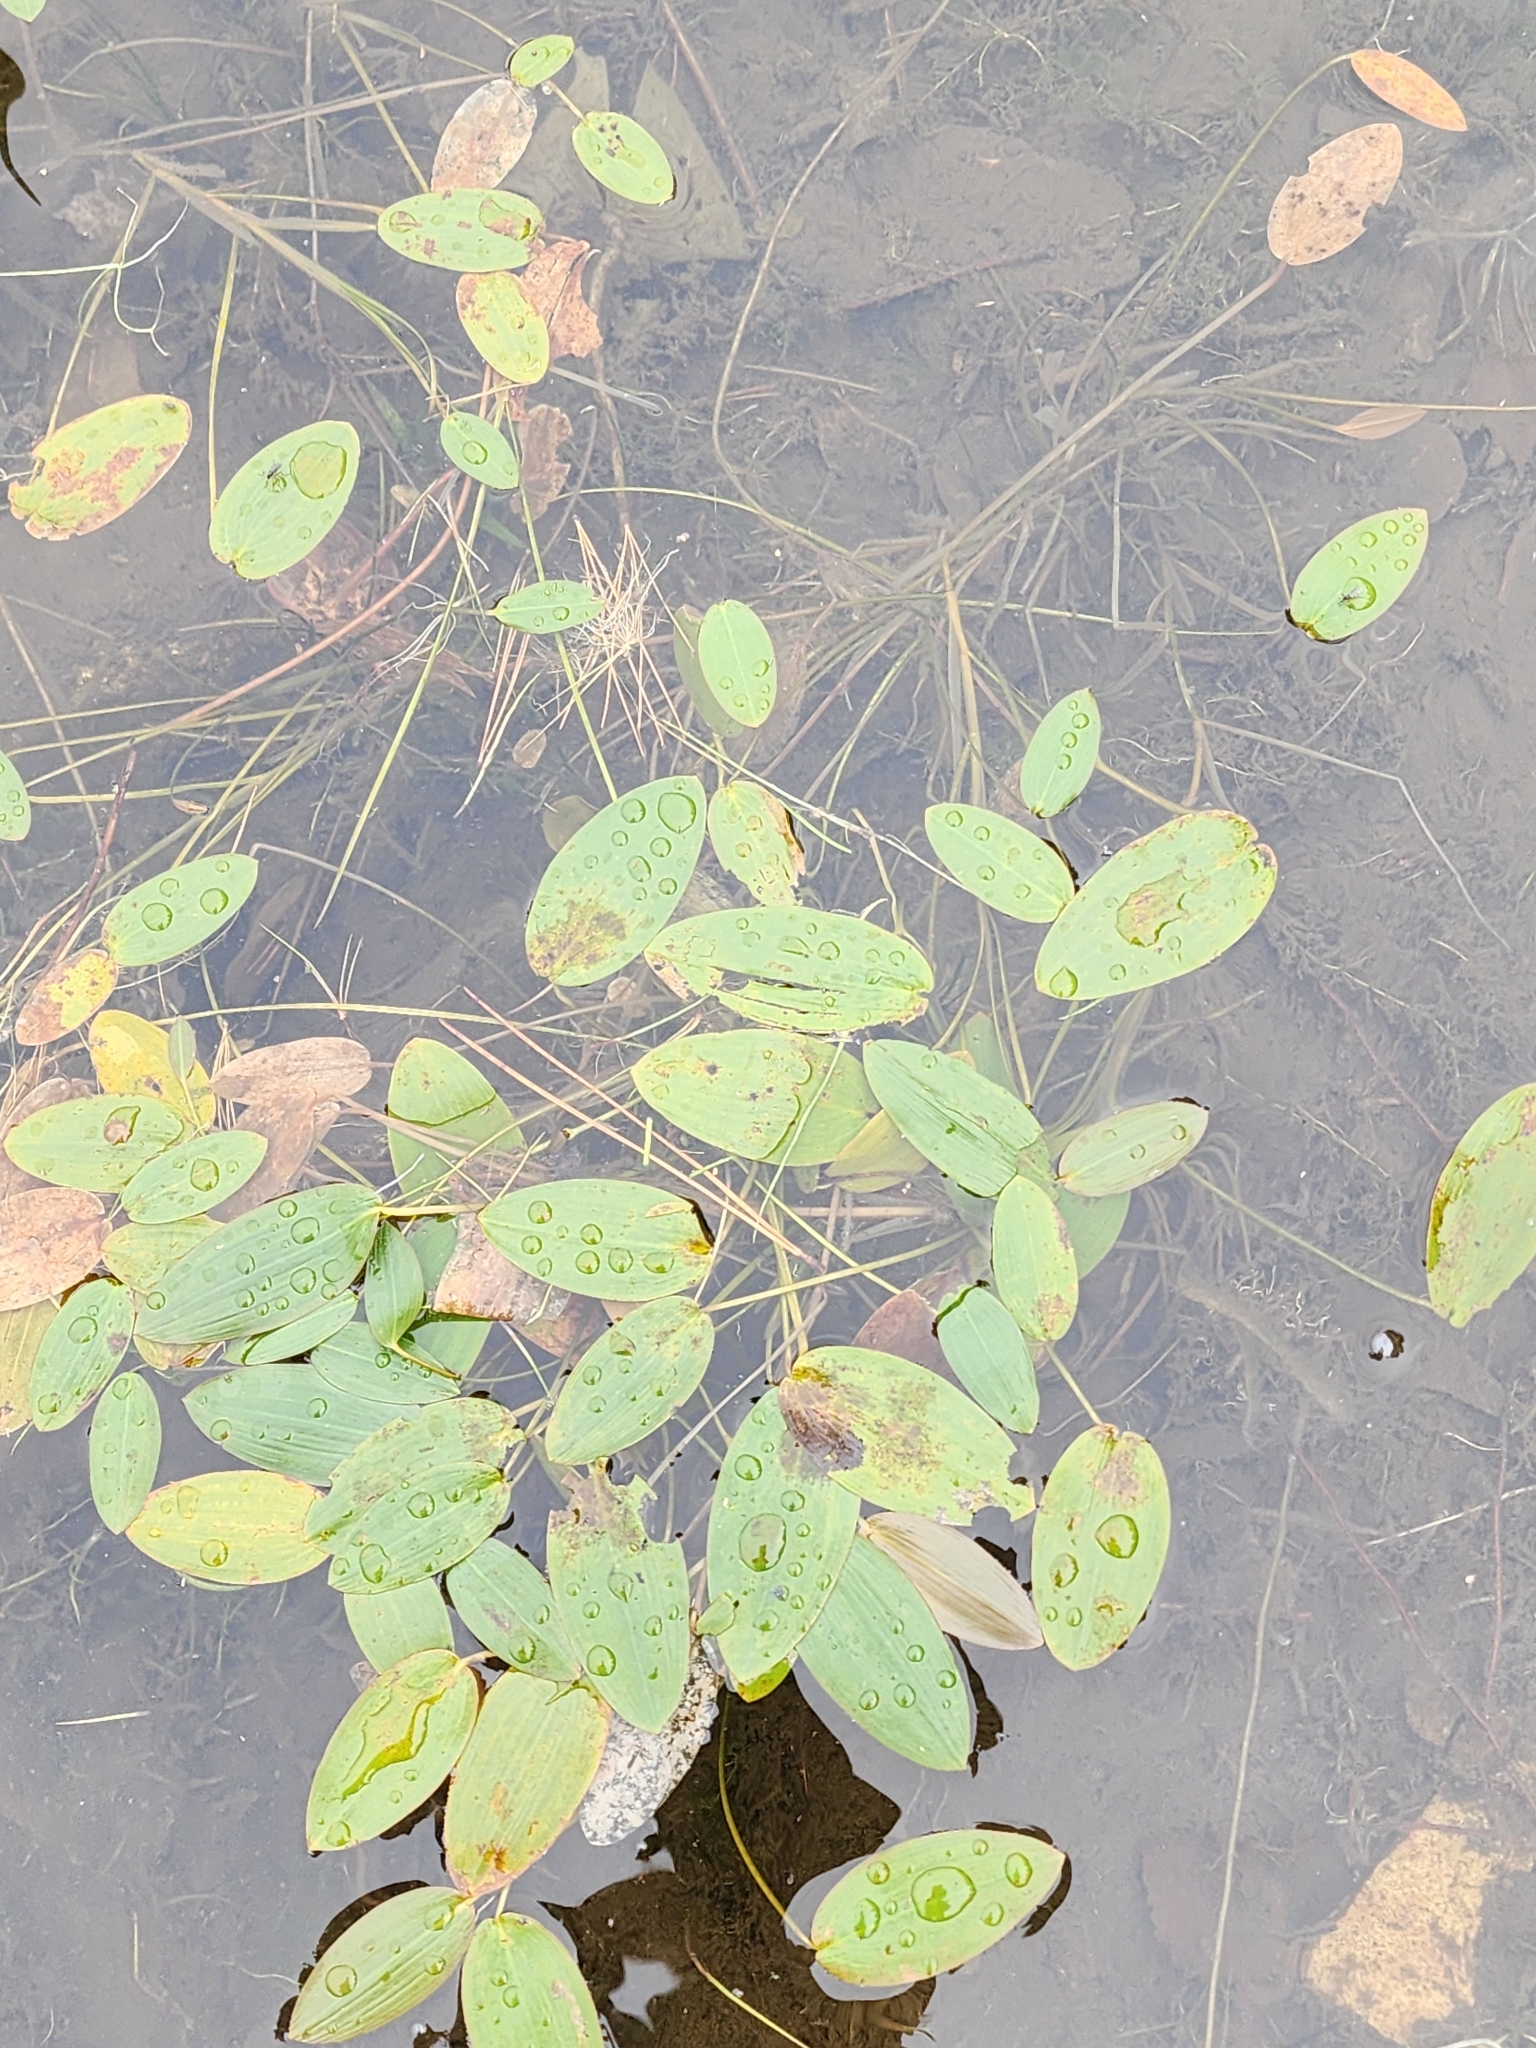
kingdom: Plantae
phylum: Tracheophyta
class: Liliopsida
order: Alismatales
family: Potamogetonaceae
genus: Potamogeton
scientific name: Potamogeton natans
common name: Broad-leaved pondweed
